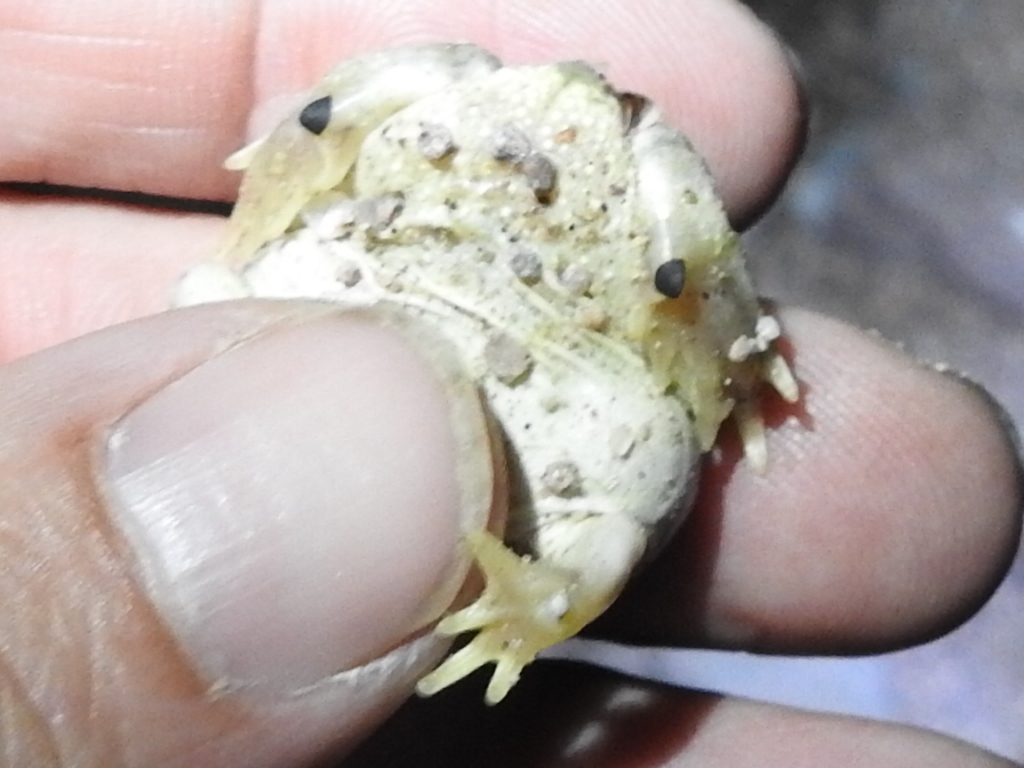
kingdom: Animalia
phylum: Chordata
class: Amphibia
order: Anura
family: Scaphiopodidae
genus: Spea
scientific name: Spea multiplicata
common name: Mexican spadefoot
